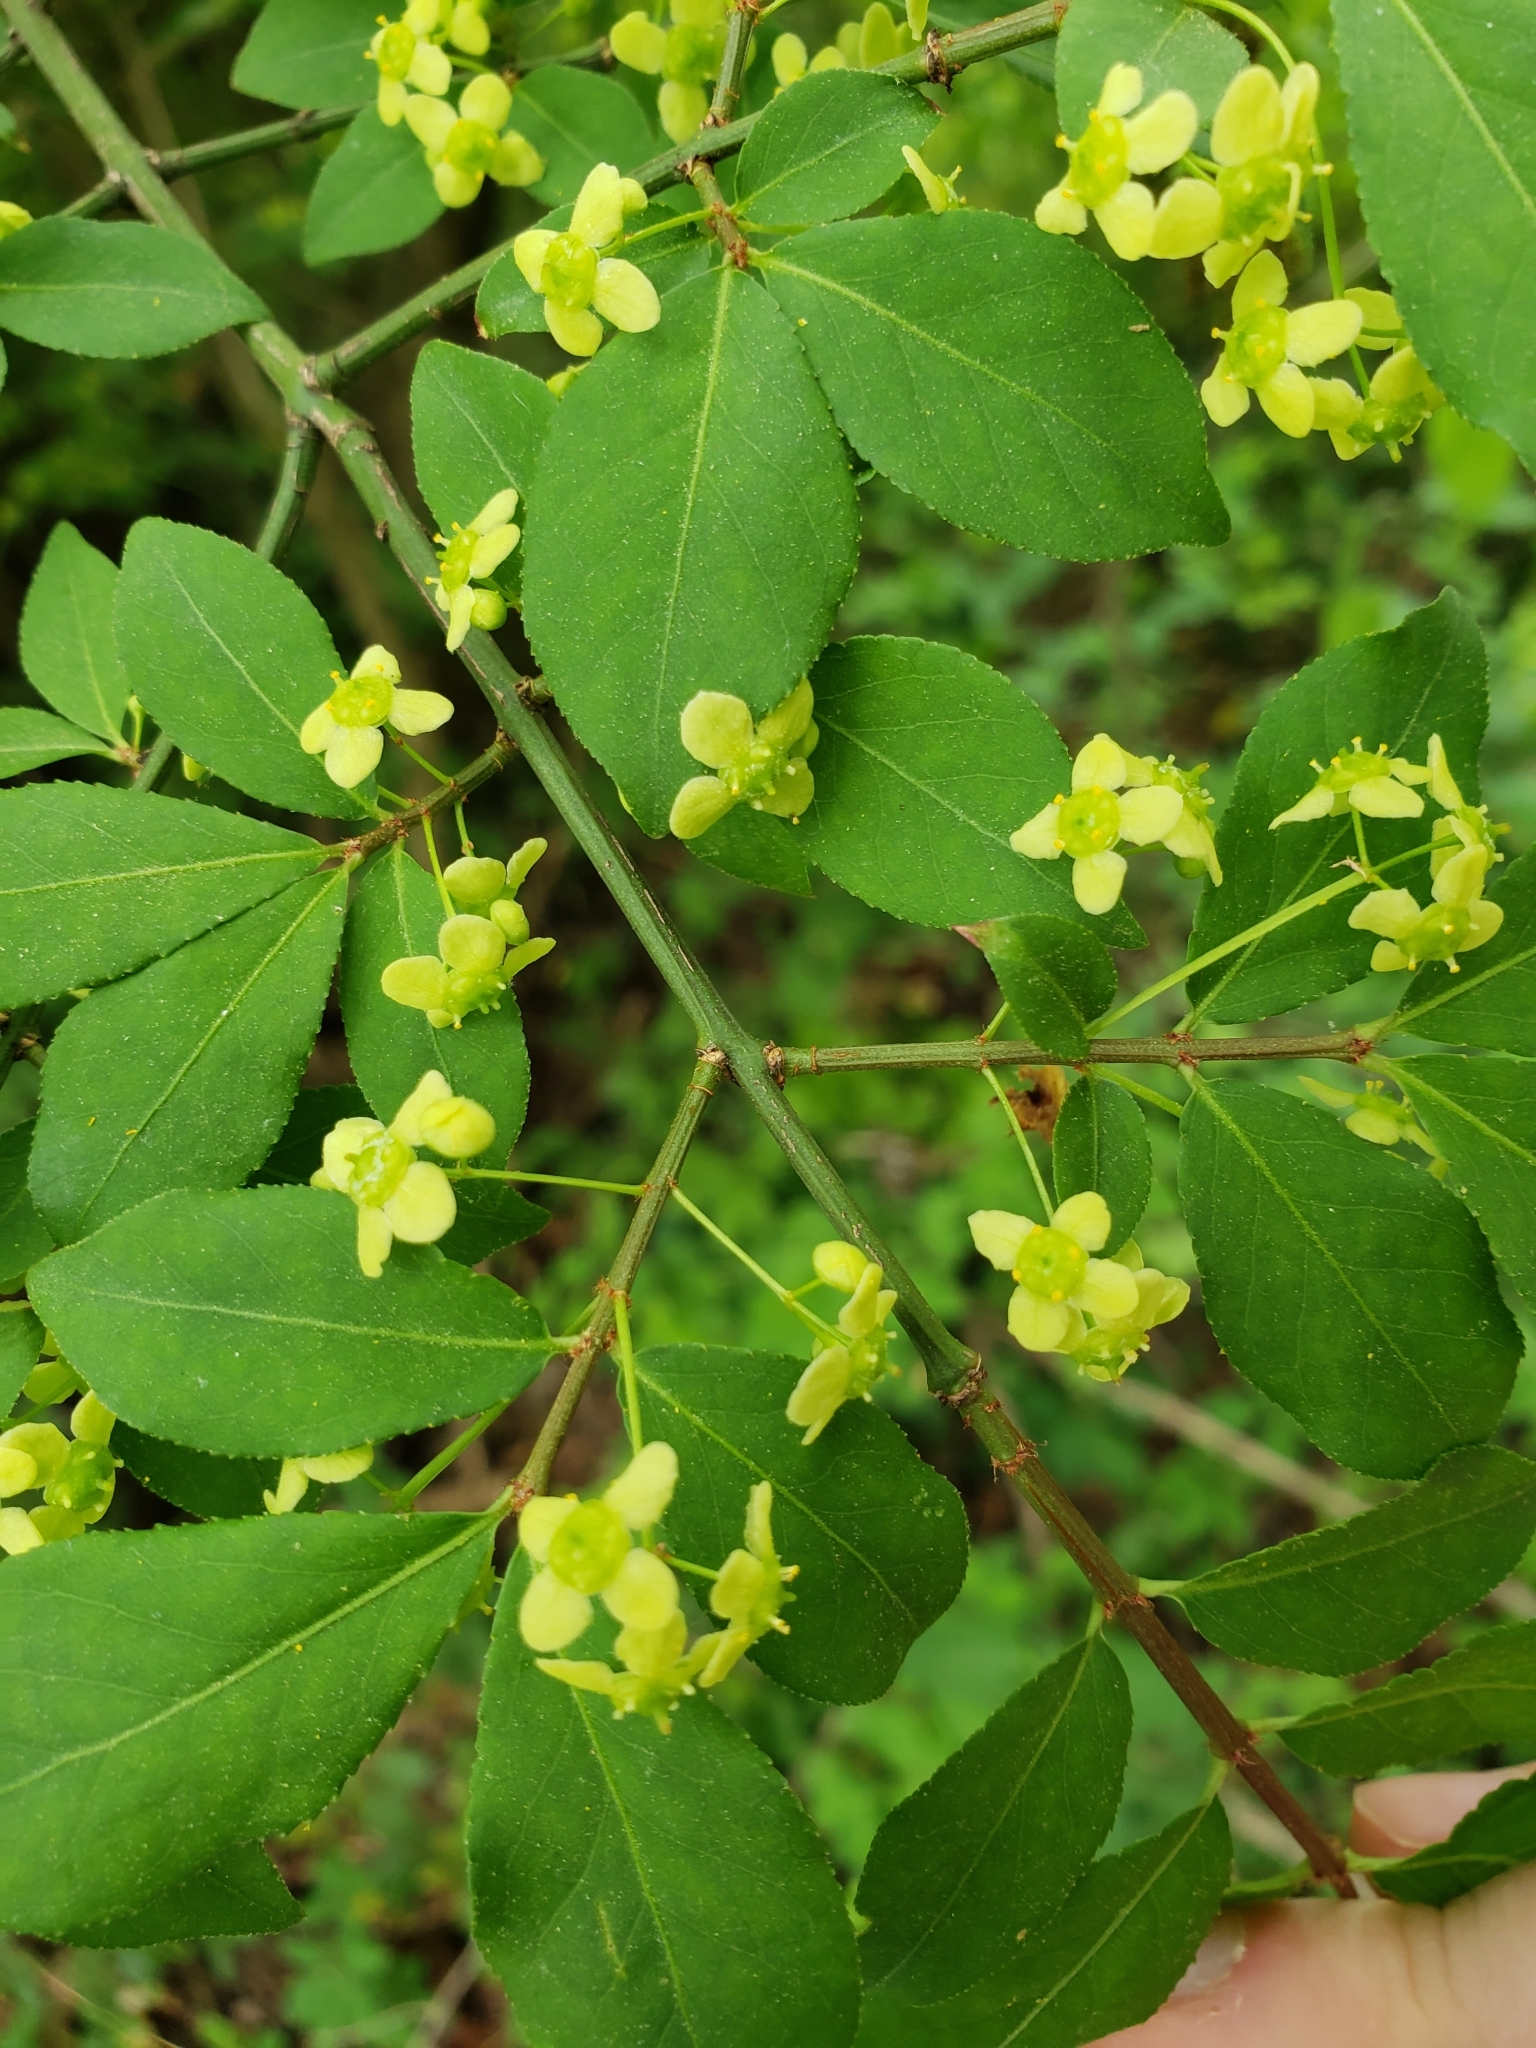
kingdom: Plantae
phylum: Tracheophyta
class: Magnoliopsida
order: Celastrales
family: Celastraceae
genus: Euonymus
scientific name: Euonymus alatus
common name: Winged euonymus
